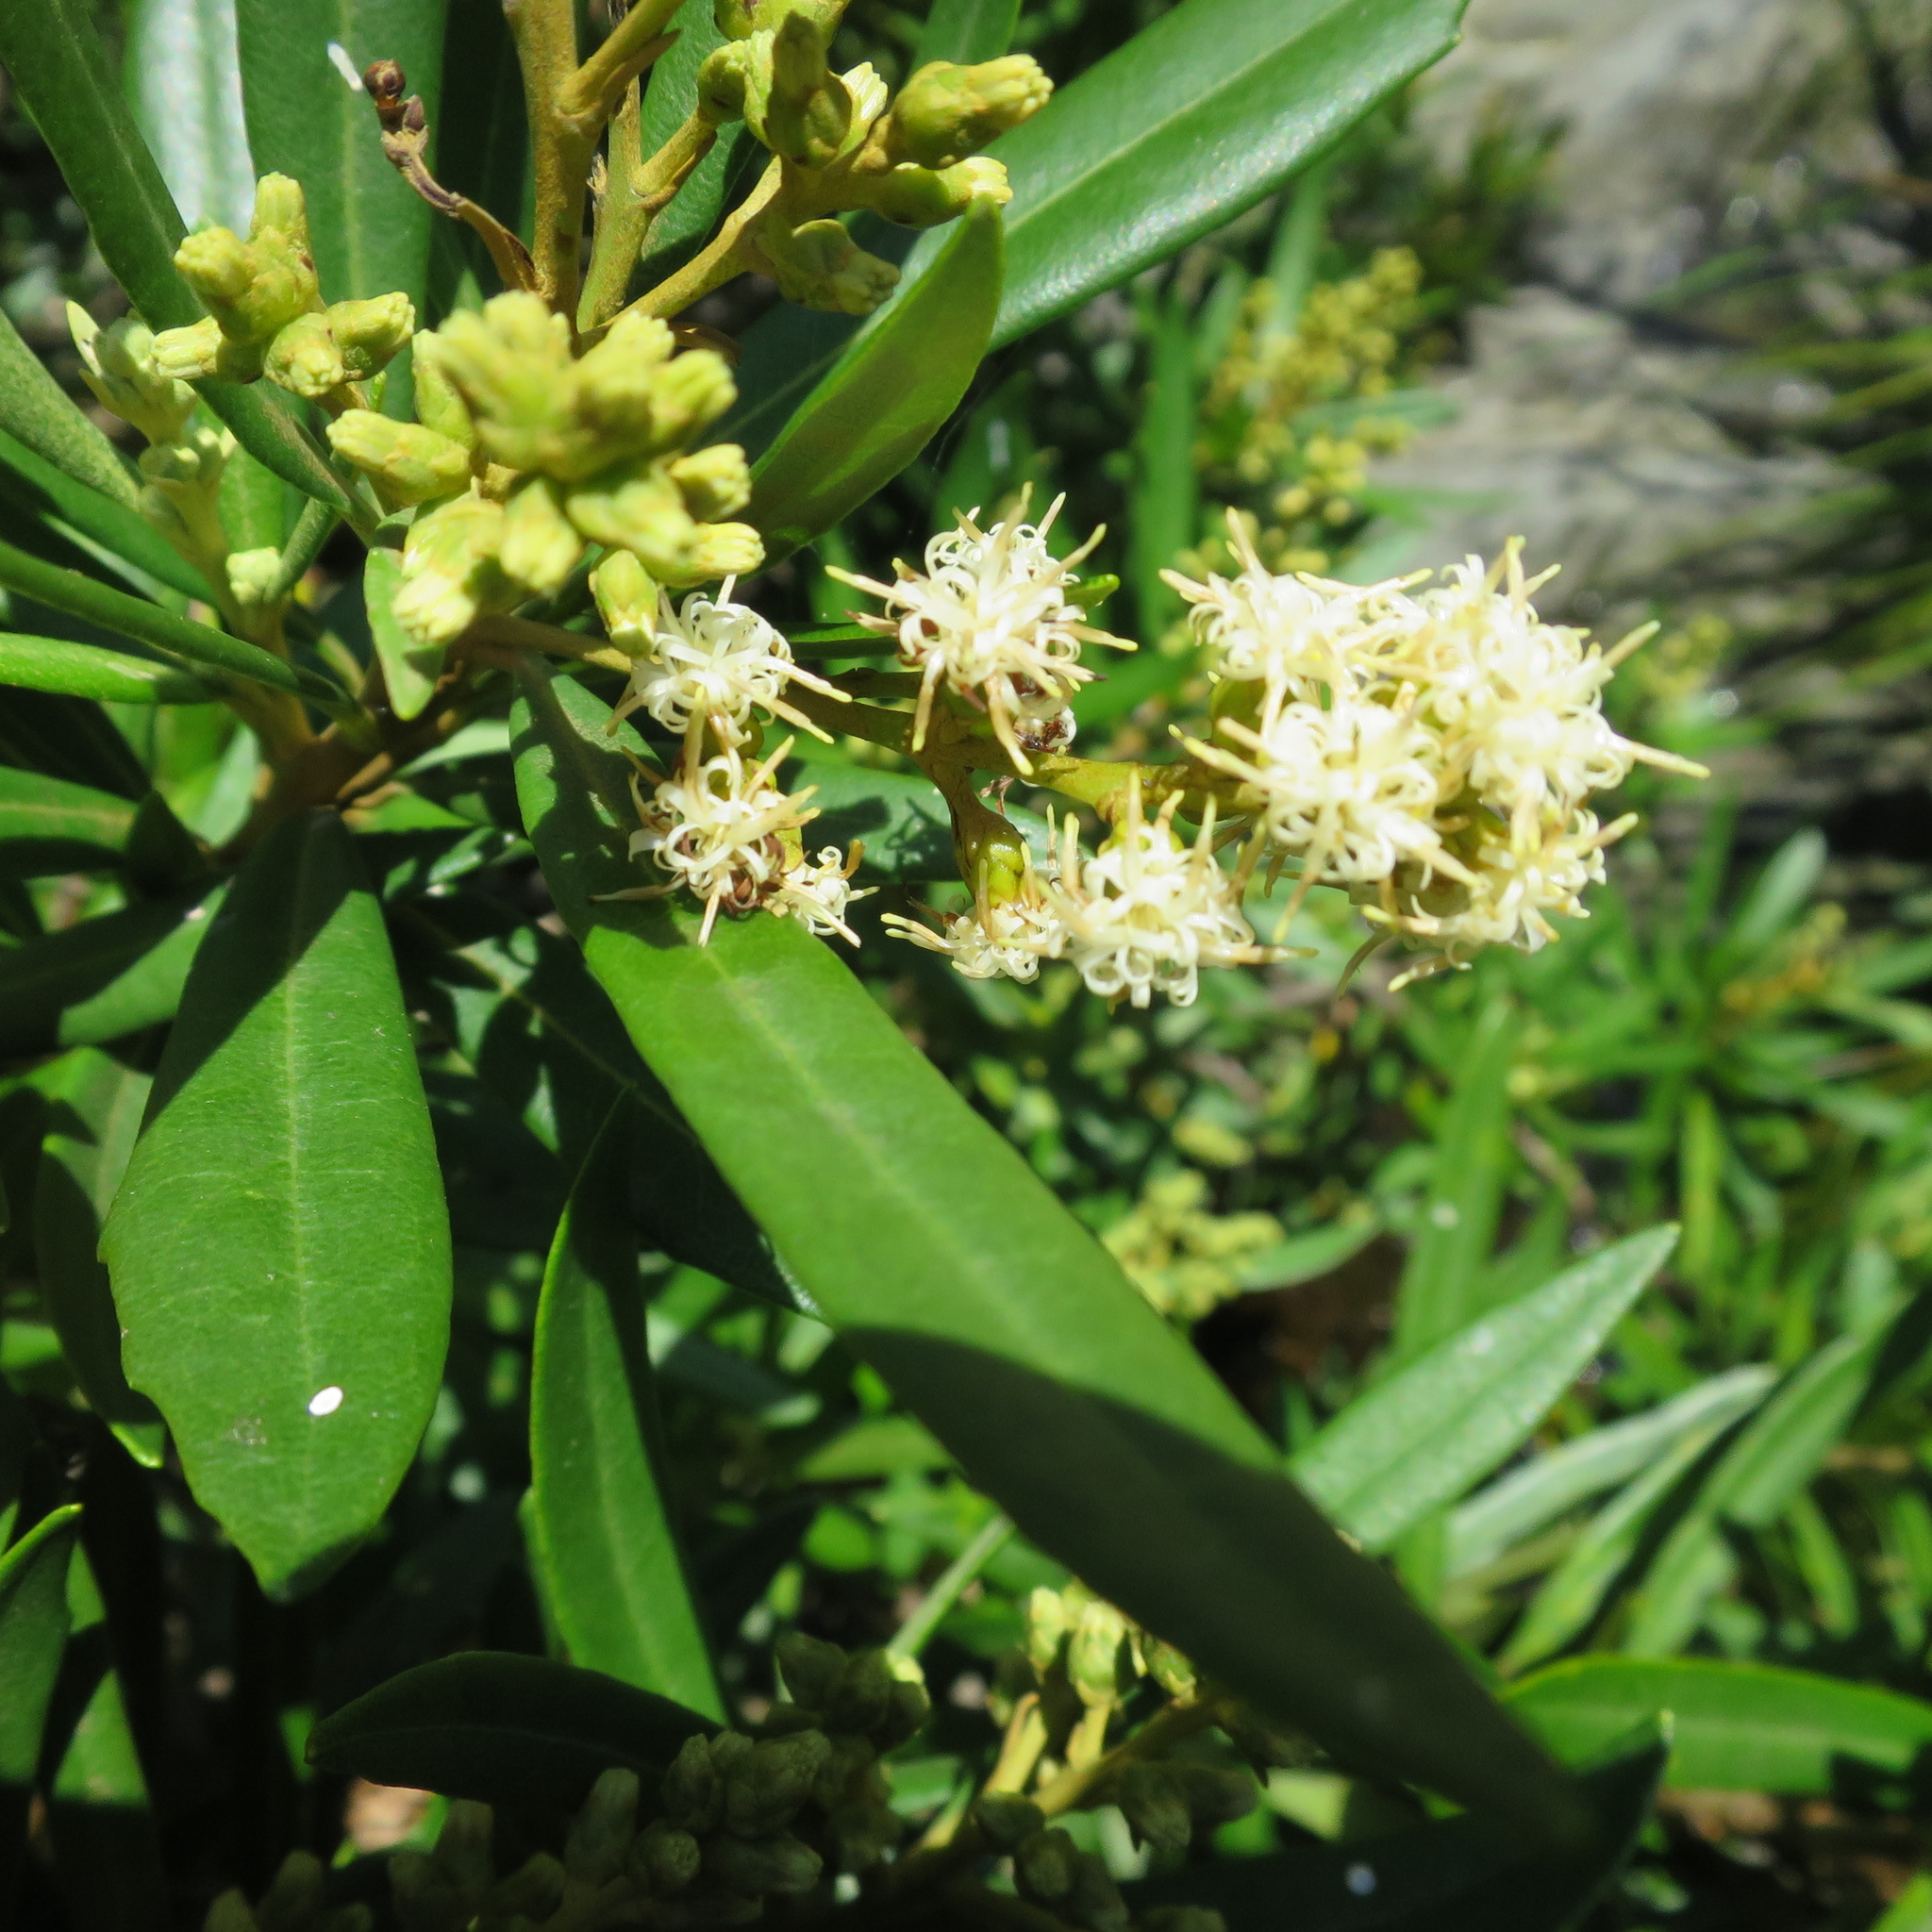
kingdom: Plantae
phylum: Tracheophyta
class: Magnoliopsida
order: Asterales
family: Asteraceae
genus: Brachylaena
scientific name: Brachylaena neriifolia
